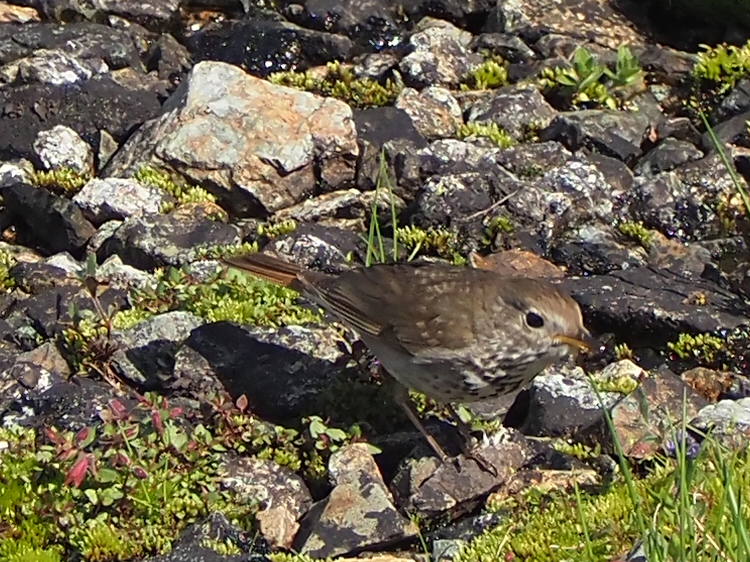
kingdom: Animalia
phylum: Chordata
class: Aves
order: Passeriformes
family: Turdidae
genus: Catharus
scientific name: Catharus guttatus
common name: Hermit thrush
